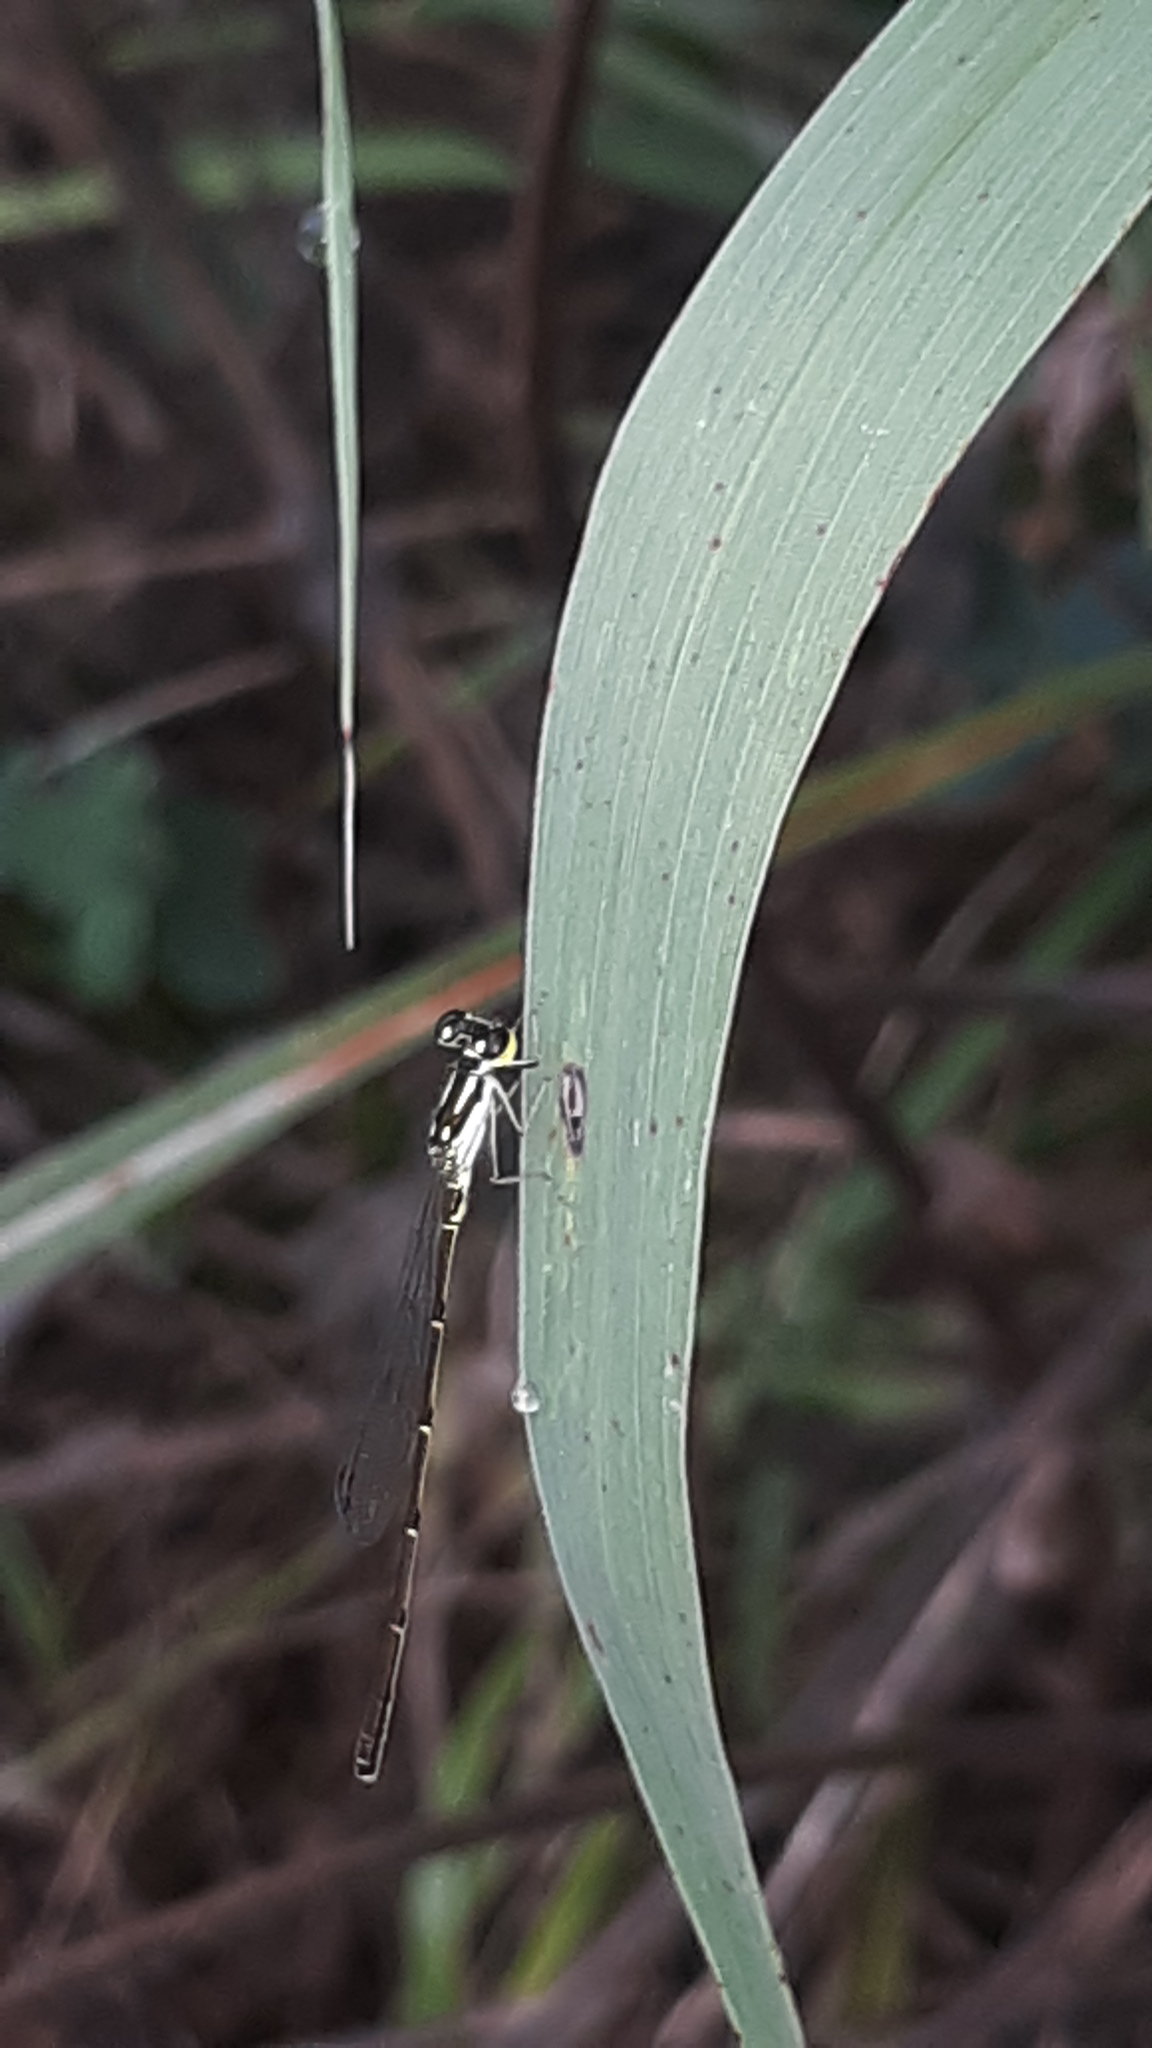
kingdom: Animalia
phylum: Arthropoda
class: Insecta
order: Odonata
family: Coenagrionidae
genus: Ischnura
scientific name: Ischnura posita
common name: Fragile forktail
